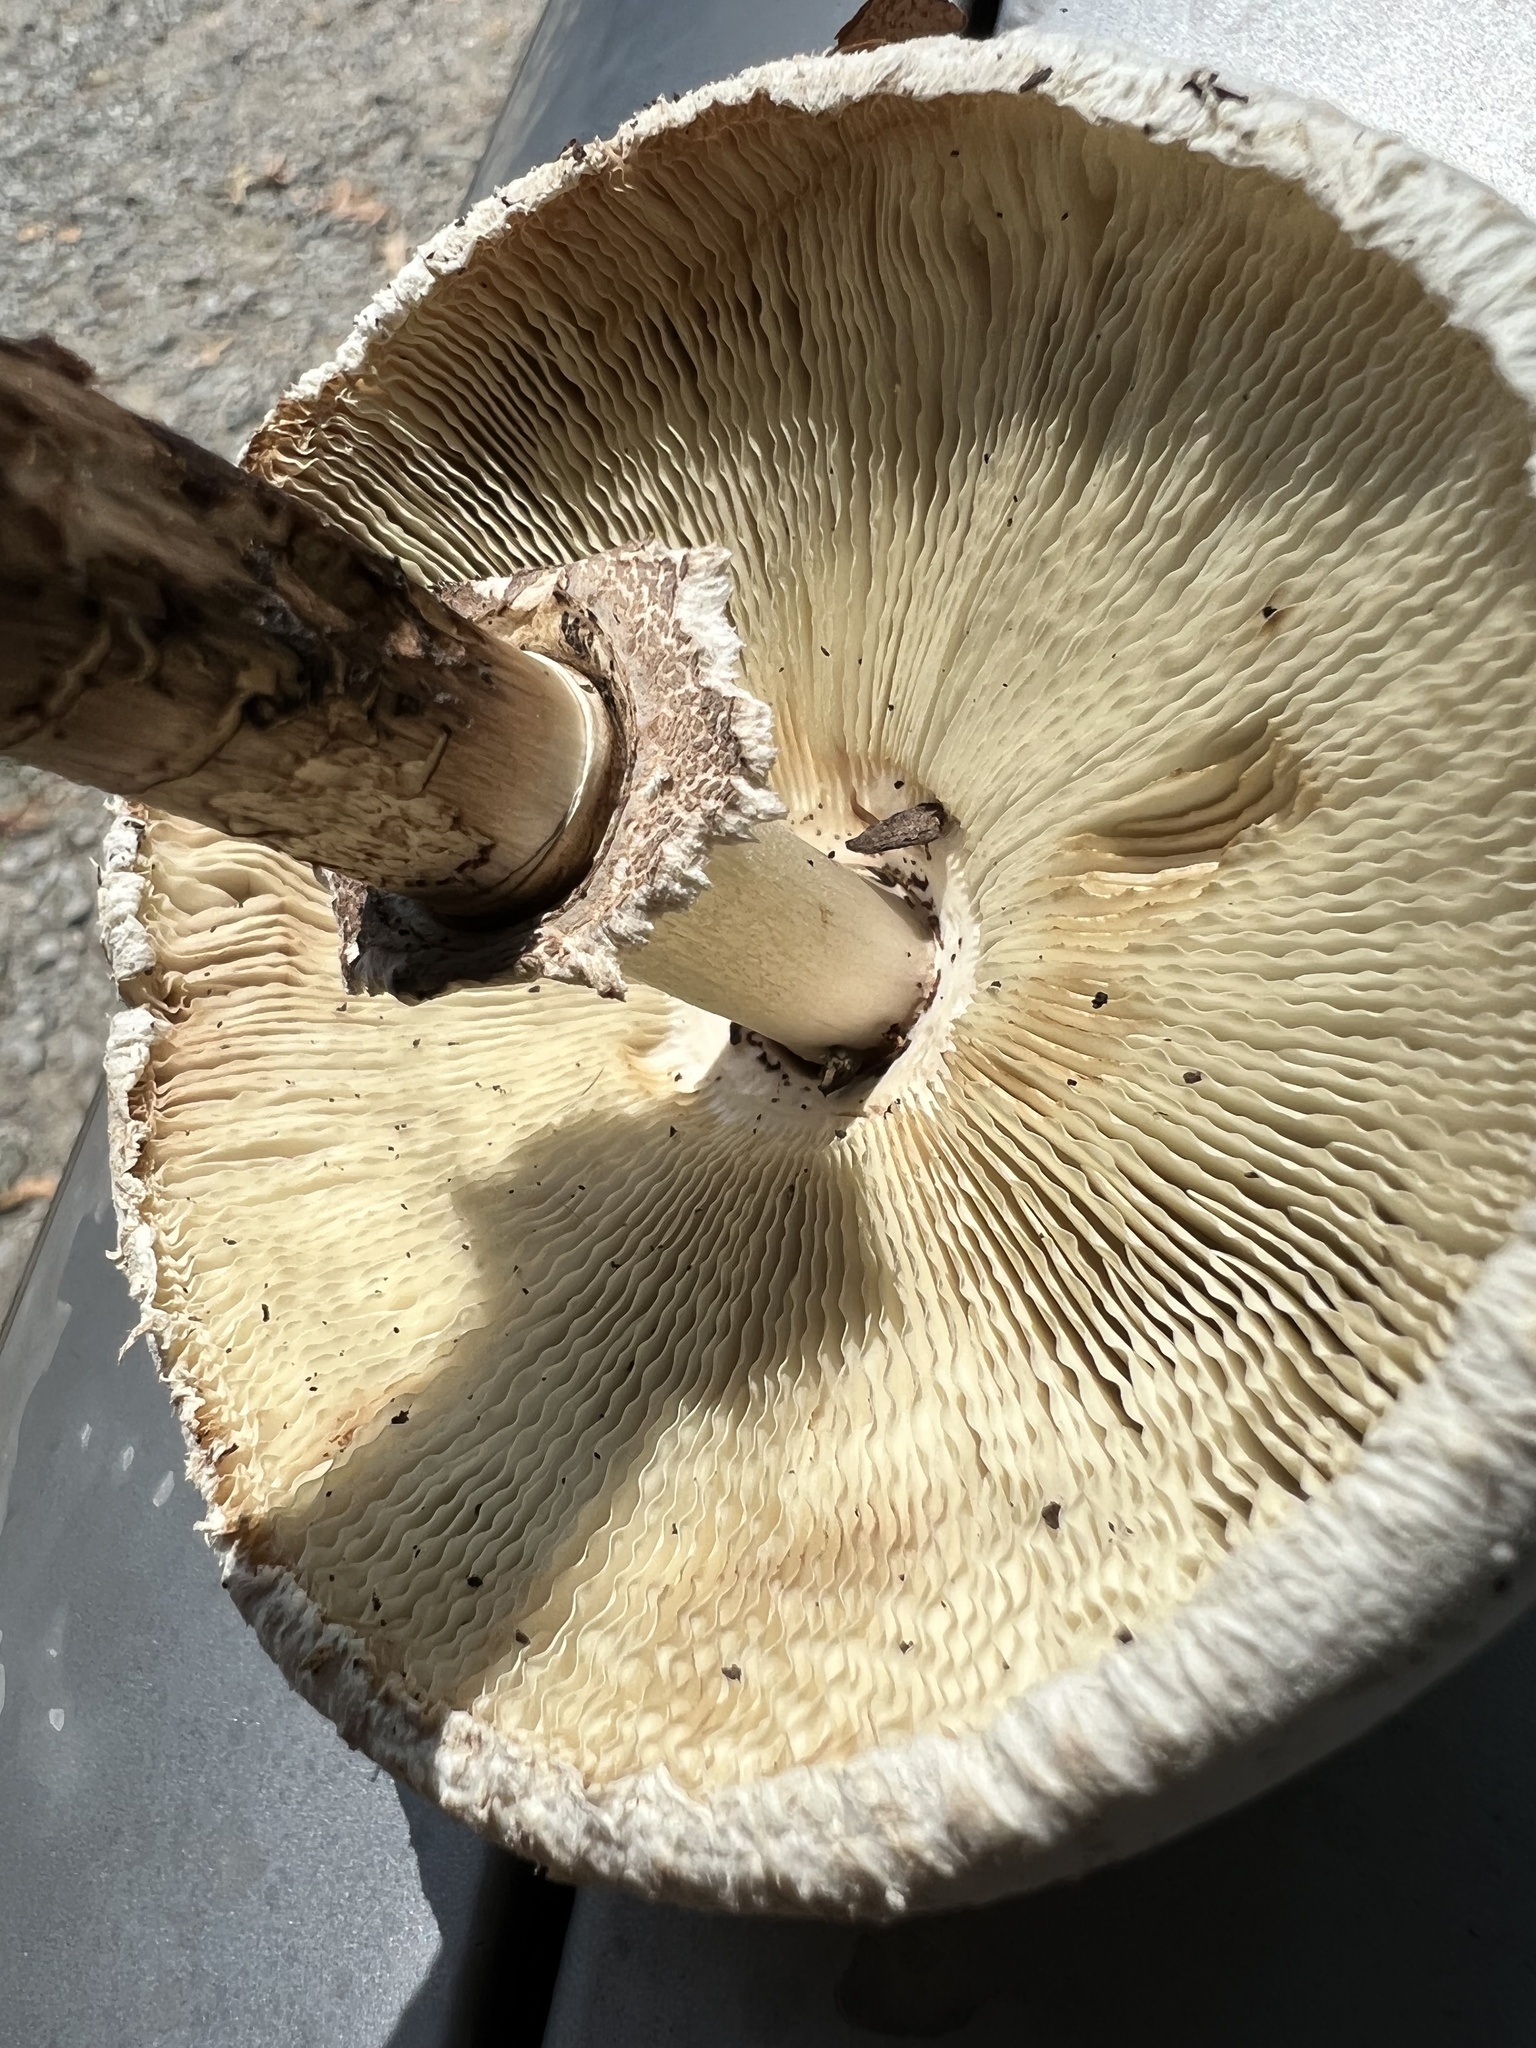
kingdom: Fungi
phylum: Basidiomycota
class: Agaricomycetes
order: Agaricales
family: Agaricaceae
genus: Chlorophyllum
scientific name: Chlorophyllum molybdites
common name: False parasol
